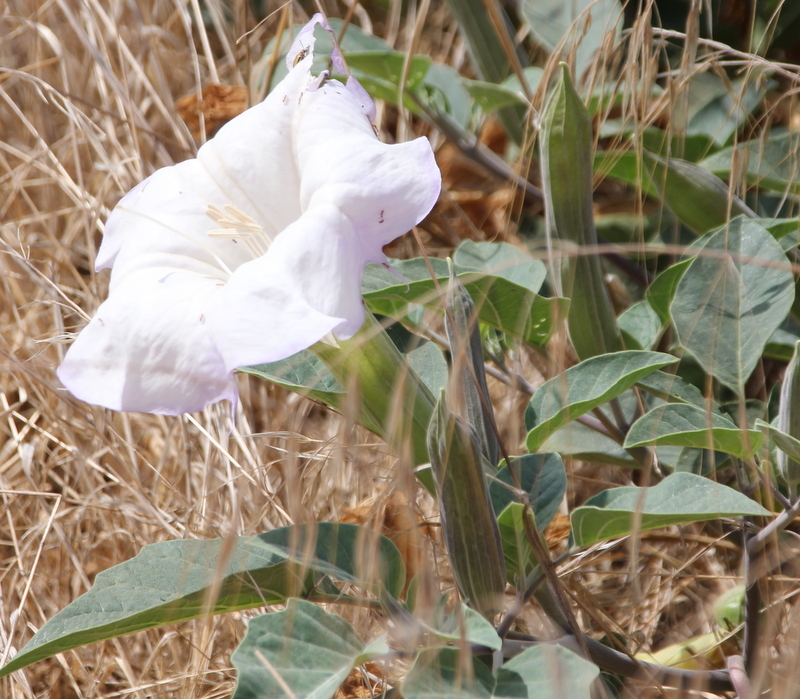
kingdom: Plantae
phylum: Tracheophyta
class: Magnoliopsida
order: Solanales
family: Solanaceae
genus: Datura
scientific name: Datura wrightii
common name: Sacred thorn-apple
